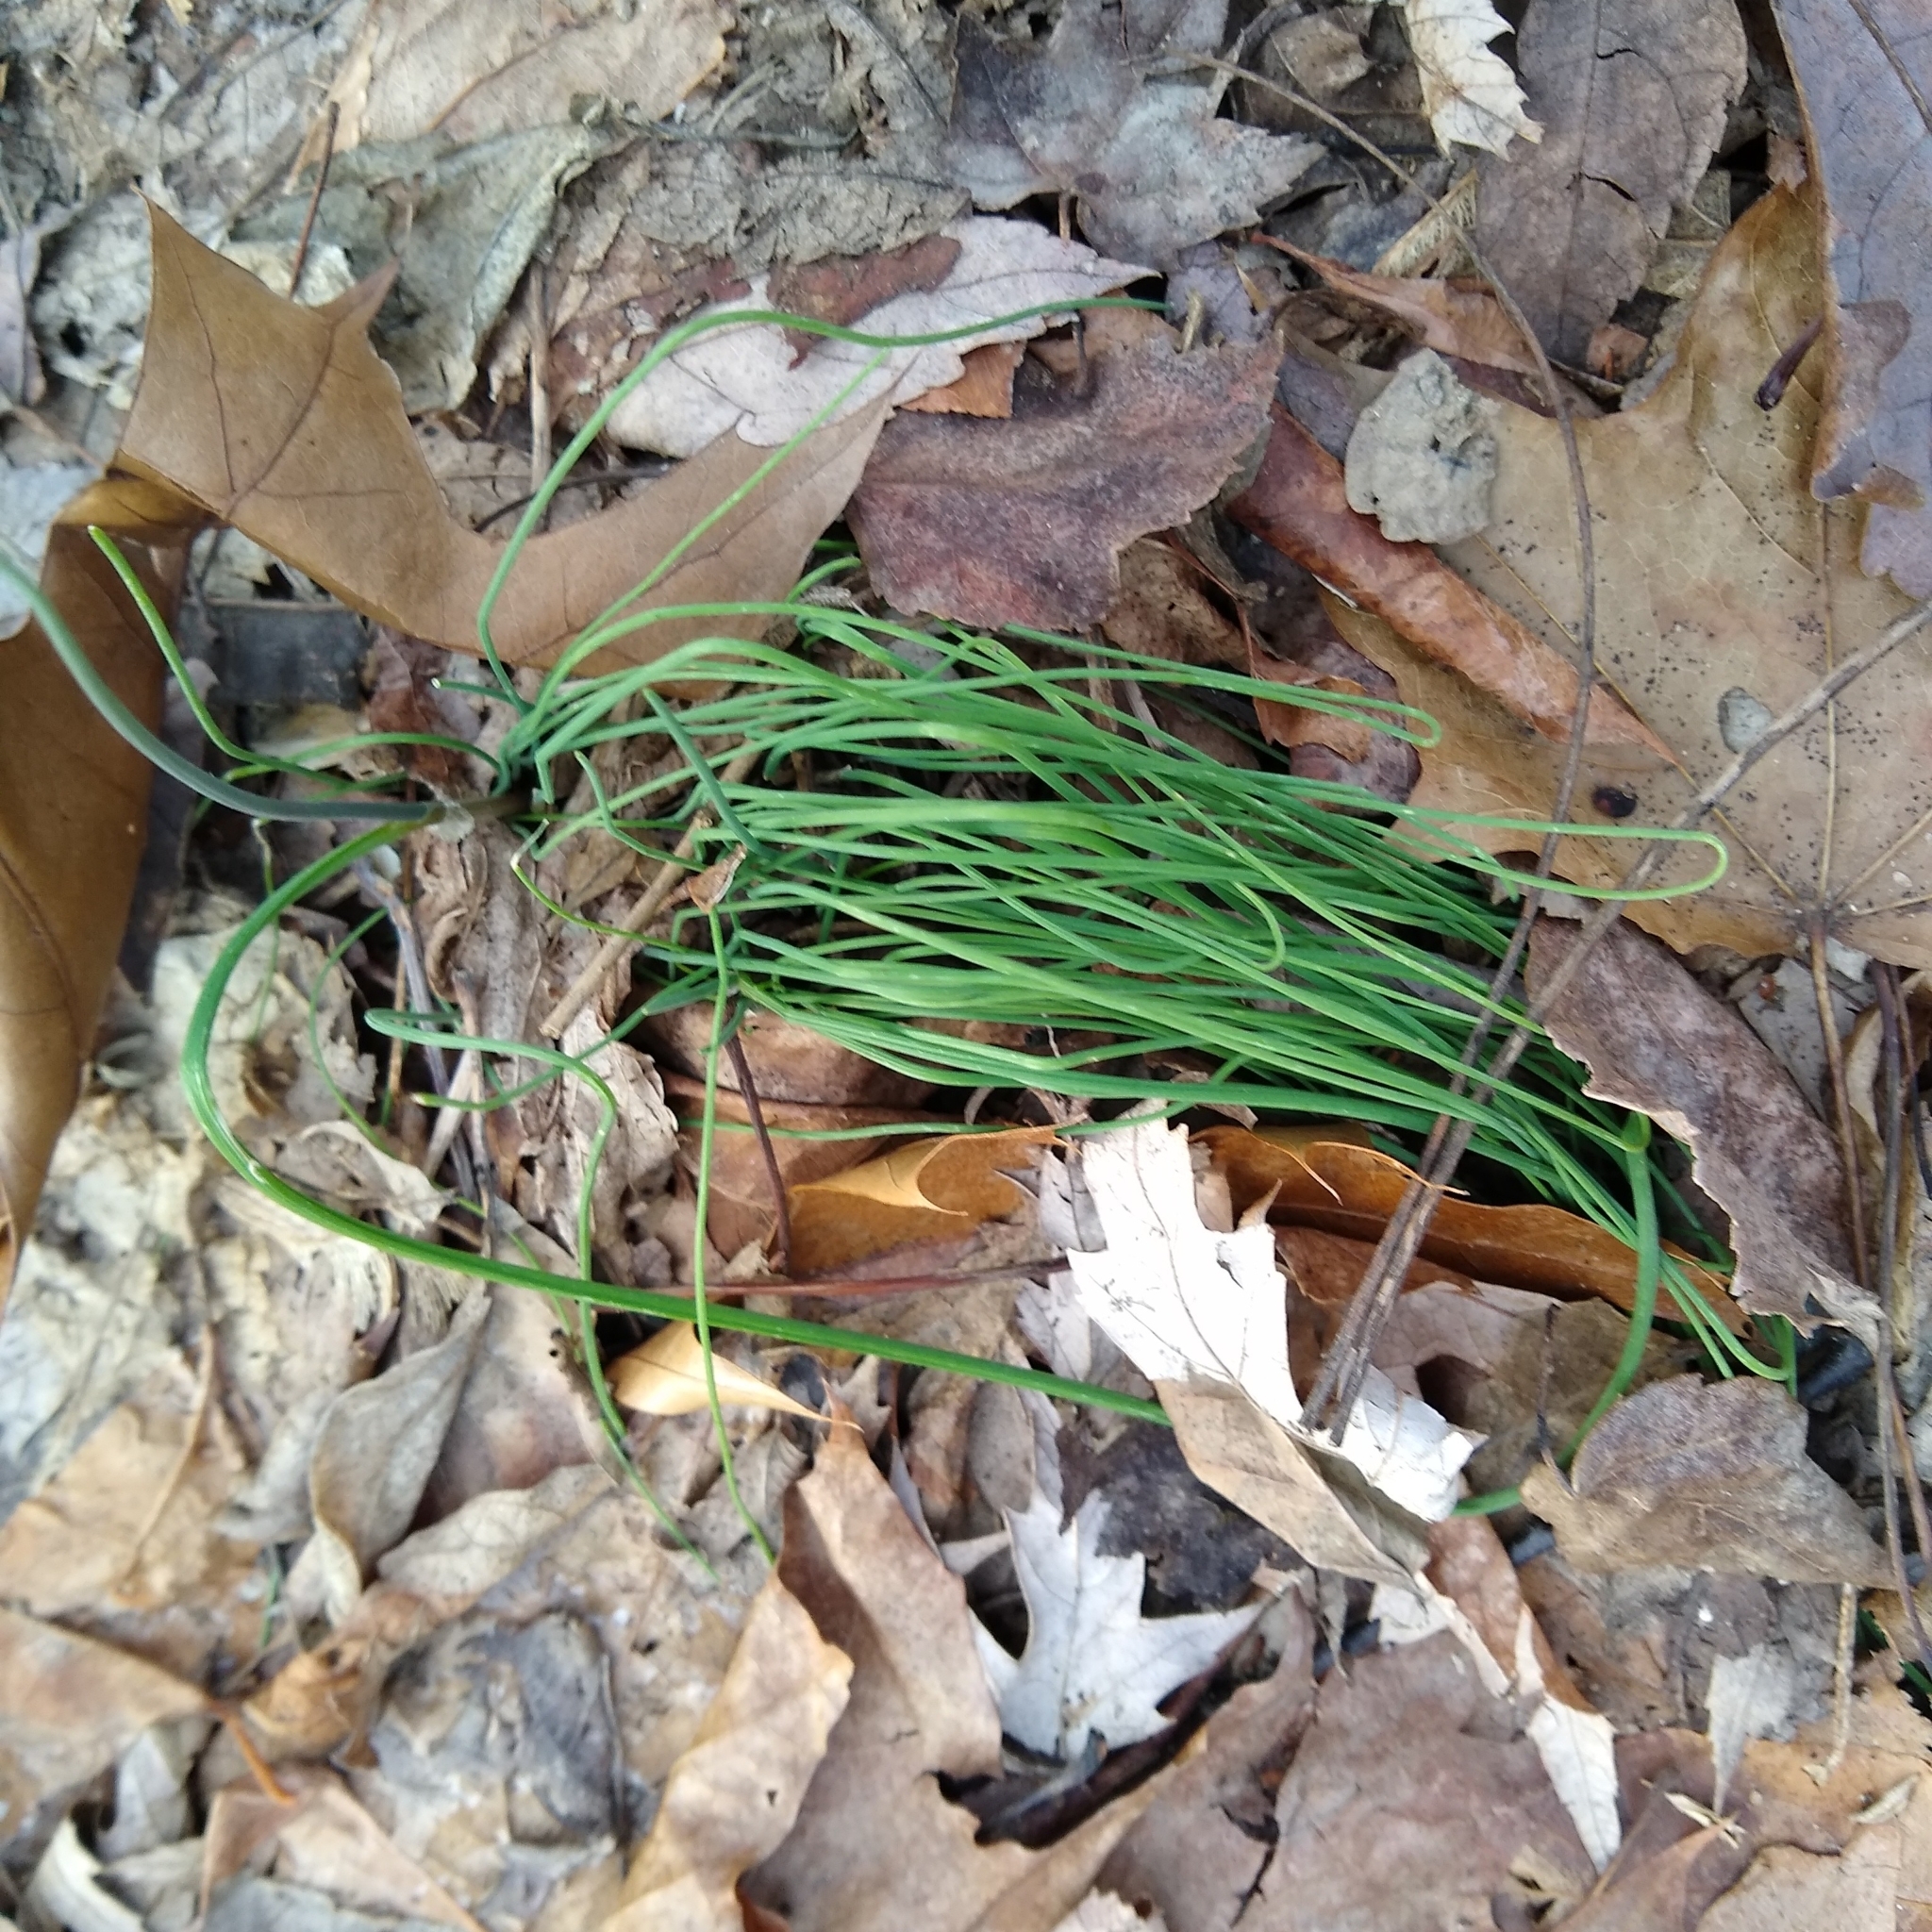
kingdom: Plantae
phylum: Tracheophyta
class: Liliopsida
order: Asparagales
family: Amaryllidaceae
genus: Allium
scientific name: Allium vineale
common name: Crow garlic
